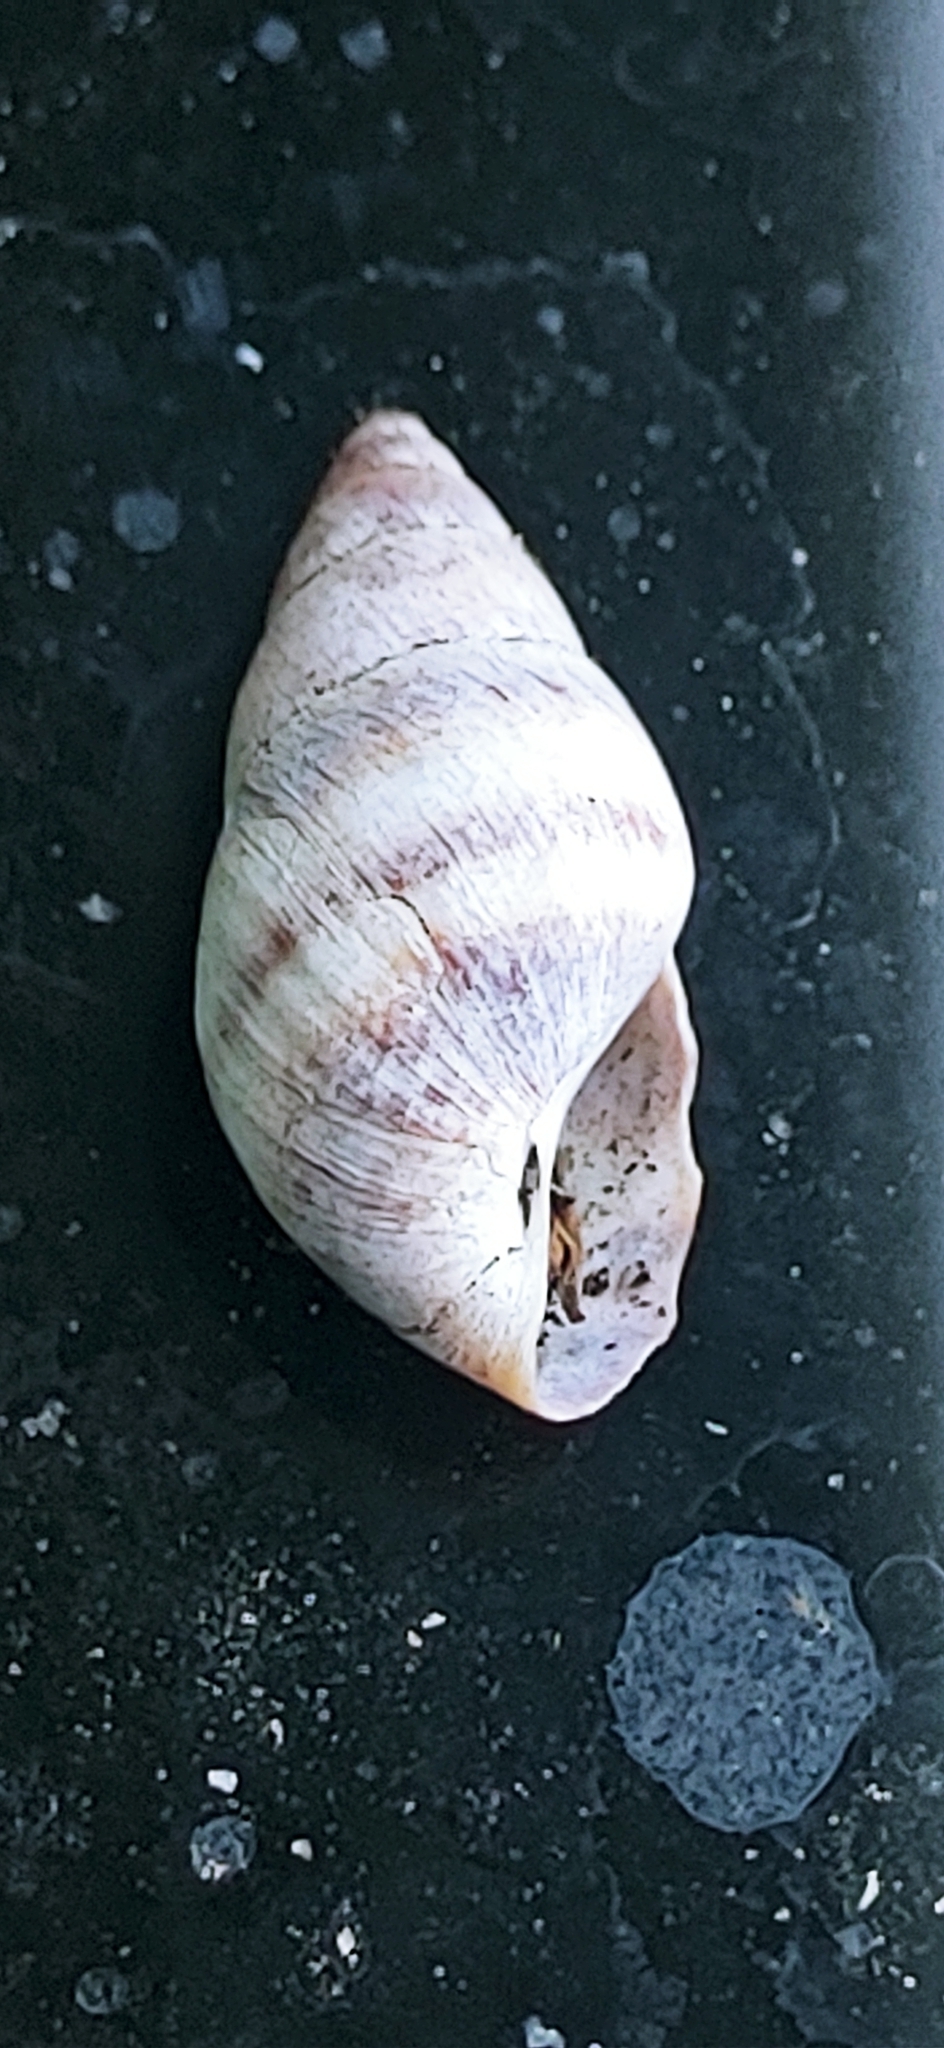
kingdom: Animalia
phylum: Mollusca
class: Gastropoda
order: Stylommatophora
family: Bulimulidae
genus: Bulimulus
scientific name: Bulimulus guadalupensis
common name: West indian bulimulus
